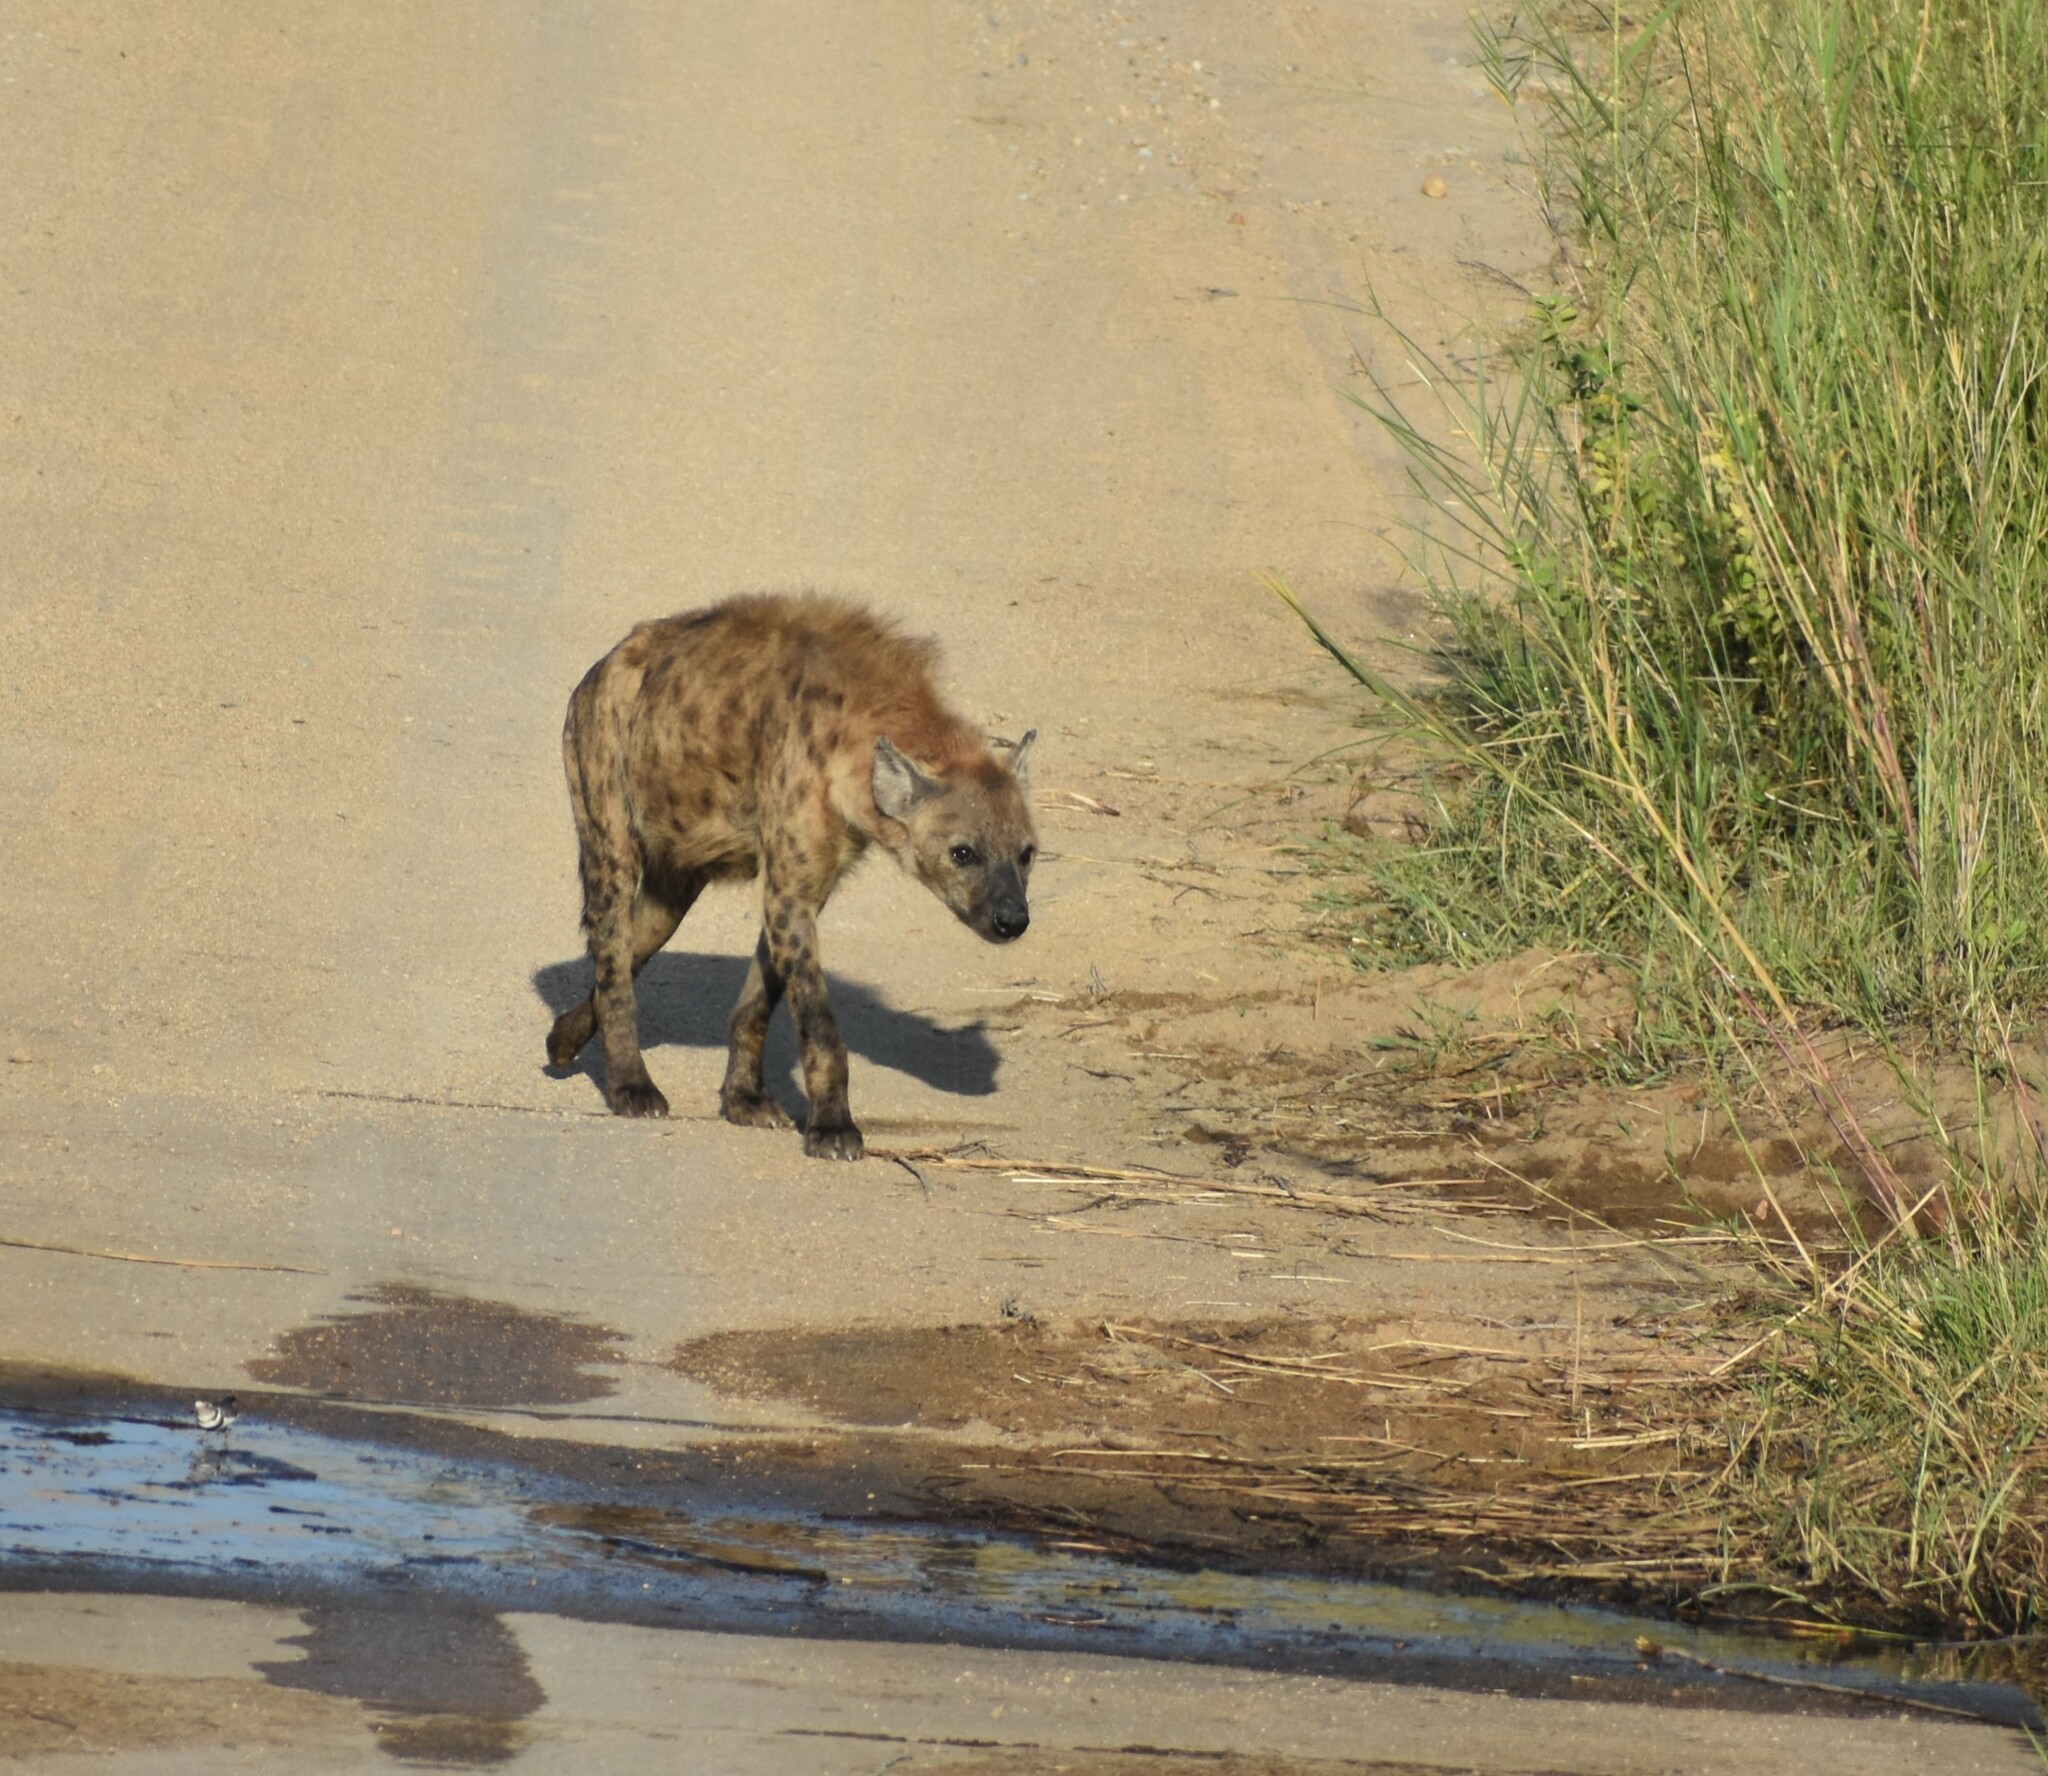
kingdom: Animalia
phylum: Chordata
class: Mammalia
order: Carnivora
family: Hyaenidae
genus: Crocuta
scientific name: Crocuta crocuta
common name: Spotted hyaena
